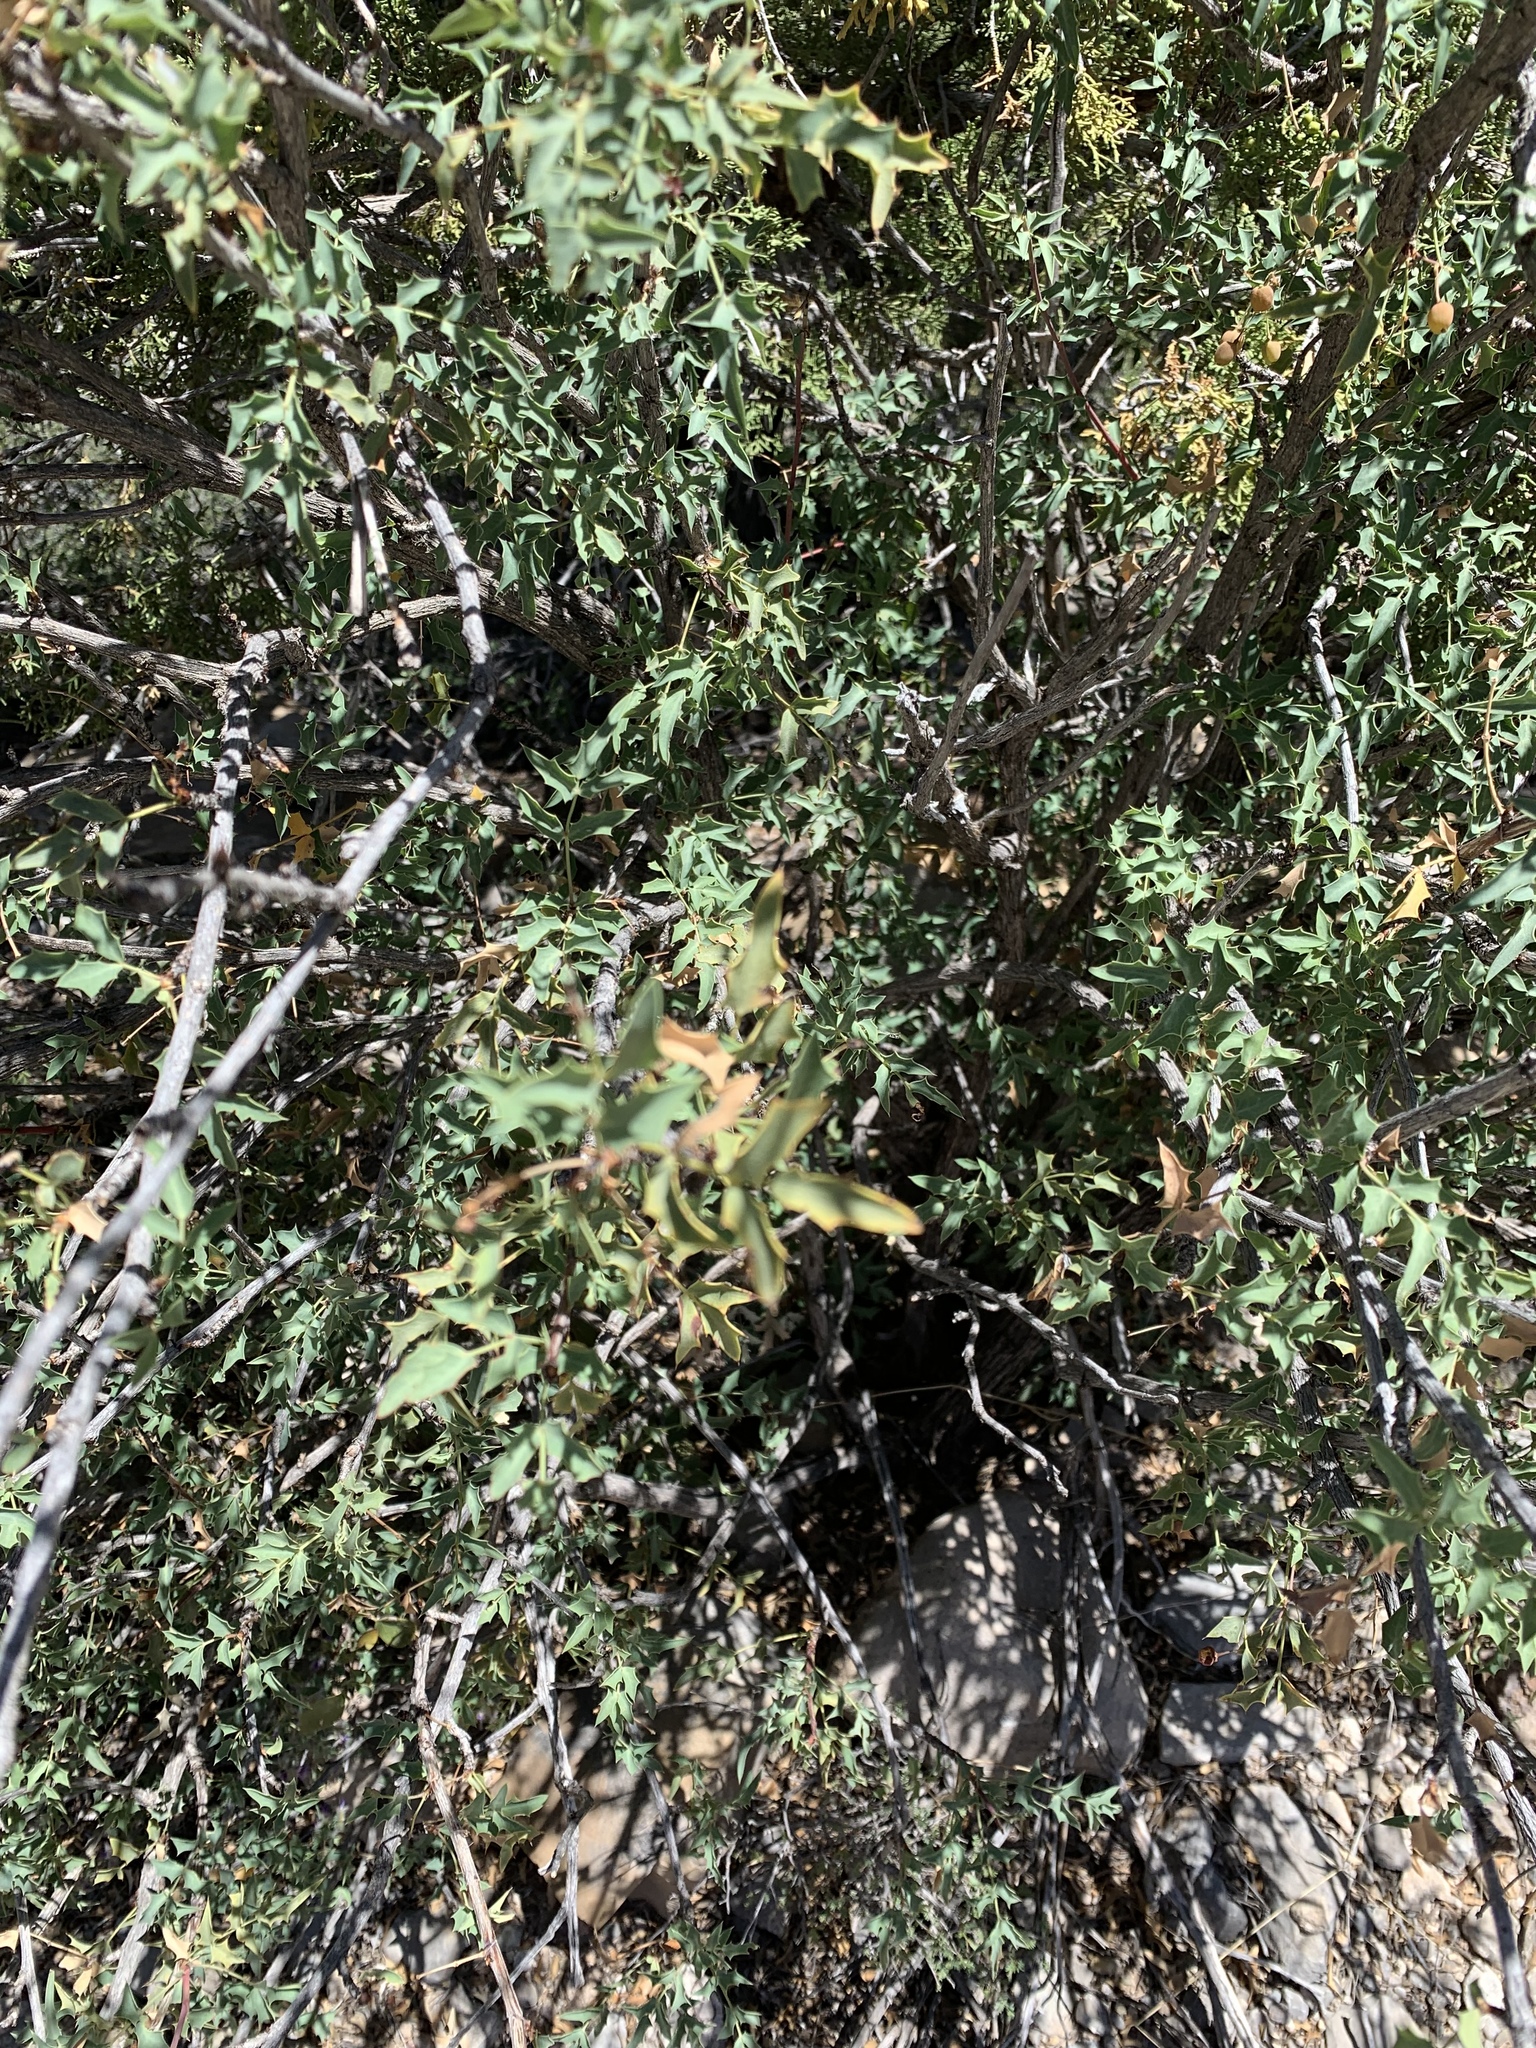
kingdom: Plantae
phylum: Tracheophyta
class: Magnoliopsida
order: Ranunculales
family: Berberidaceae
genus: Alloberberis
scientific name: Alloberberis haematocarpa
